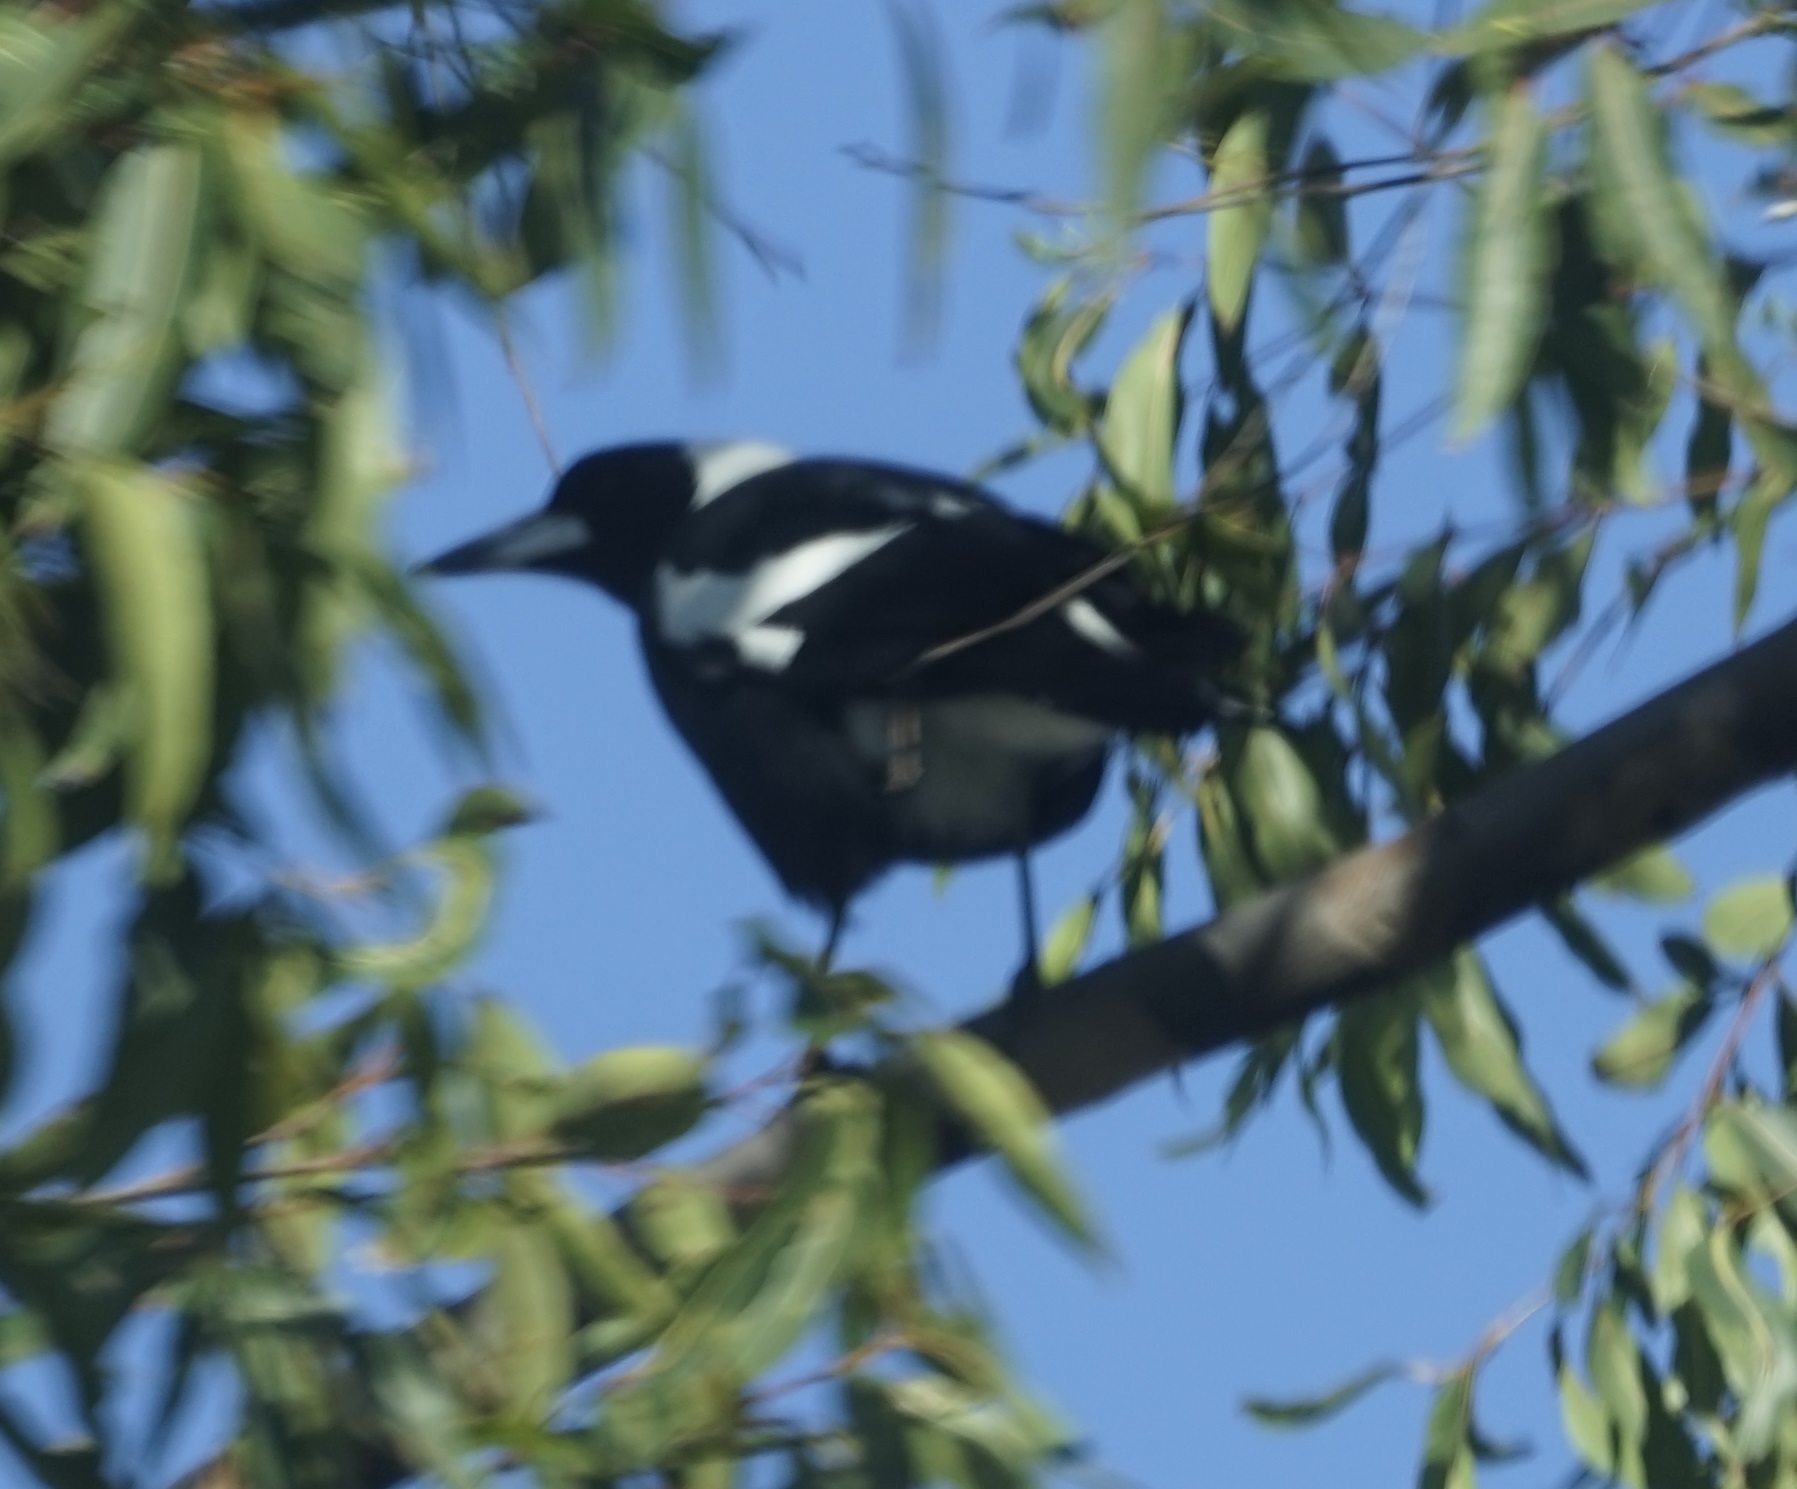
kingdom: Animalia
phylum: Chordata
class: Aves
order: Passeriformes
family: Cracticidae
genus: Gymnorhina
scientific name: Gymnorhina tibicen
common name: Australian magpie
